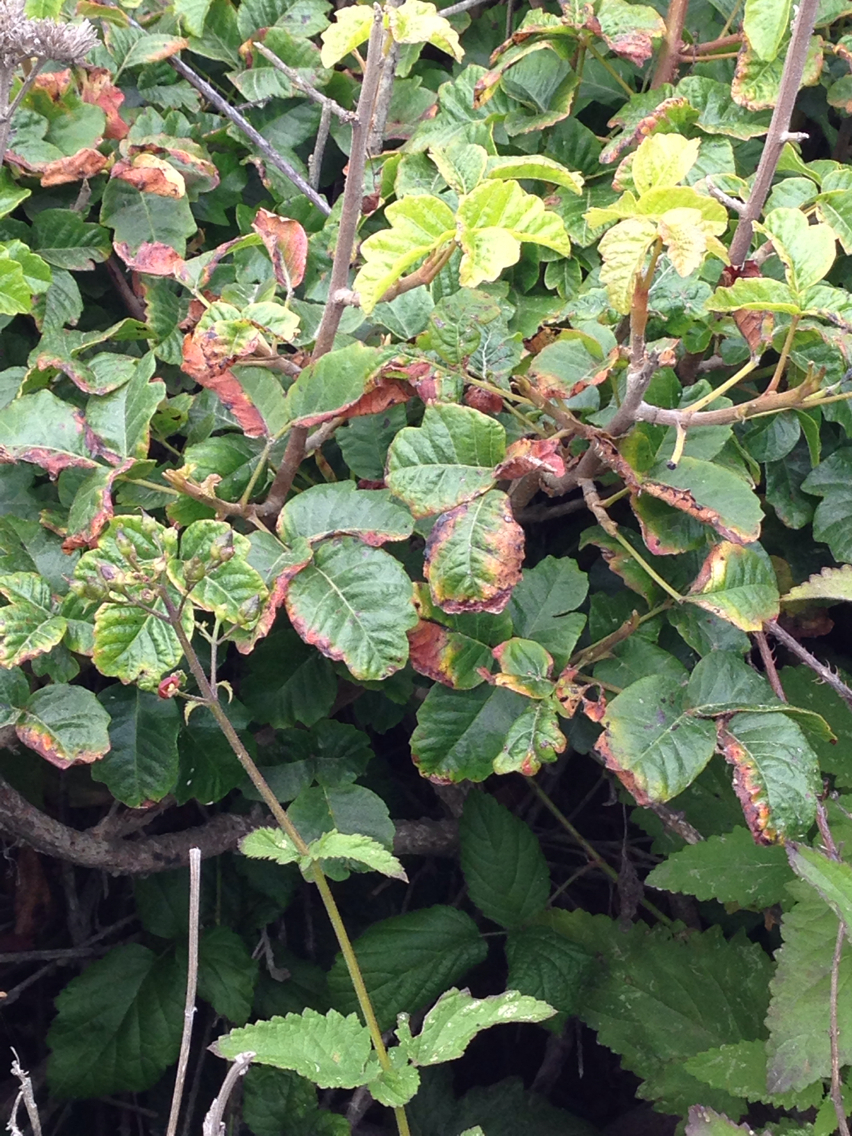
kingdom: Plantae
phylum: Tracheophyta
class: Magnoliopsida
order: Sapindales
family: Anacardiaceae
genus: Toxicodendron
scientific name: Toxicodendron diversilobum
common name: Pacific poison-oak
